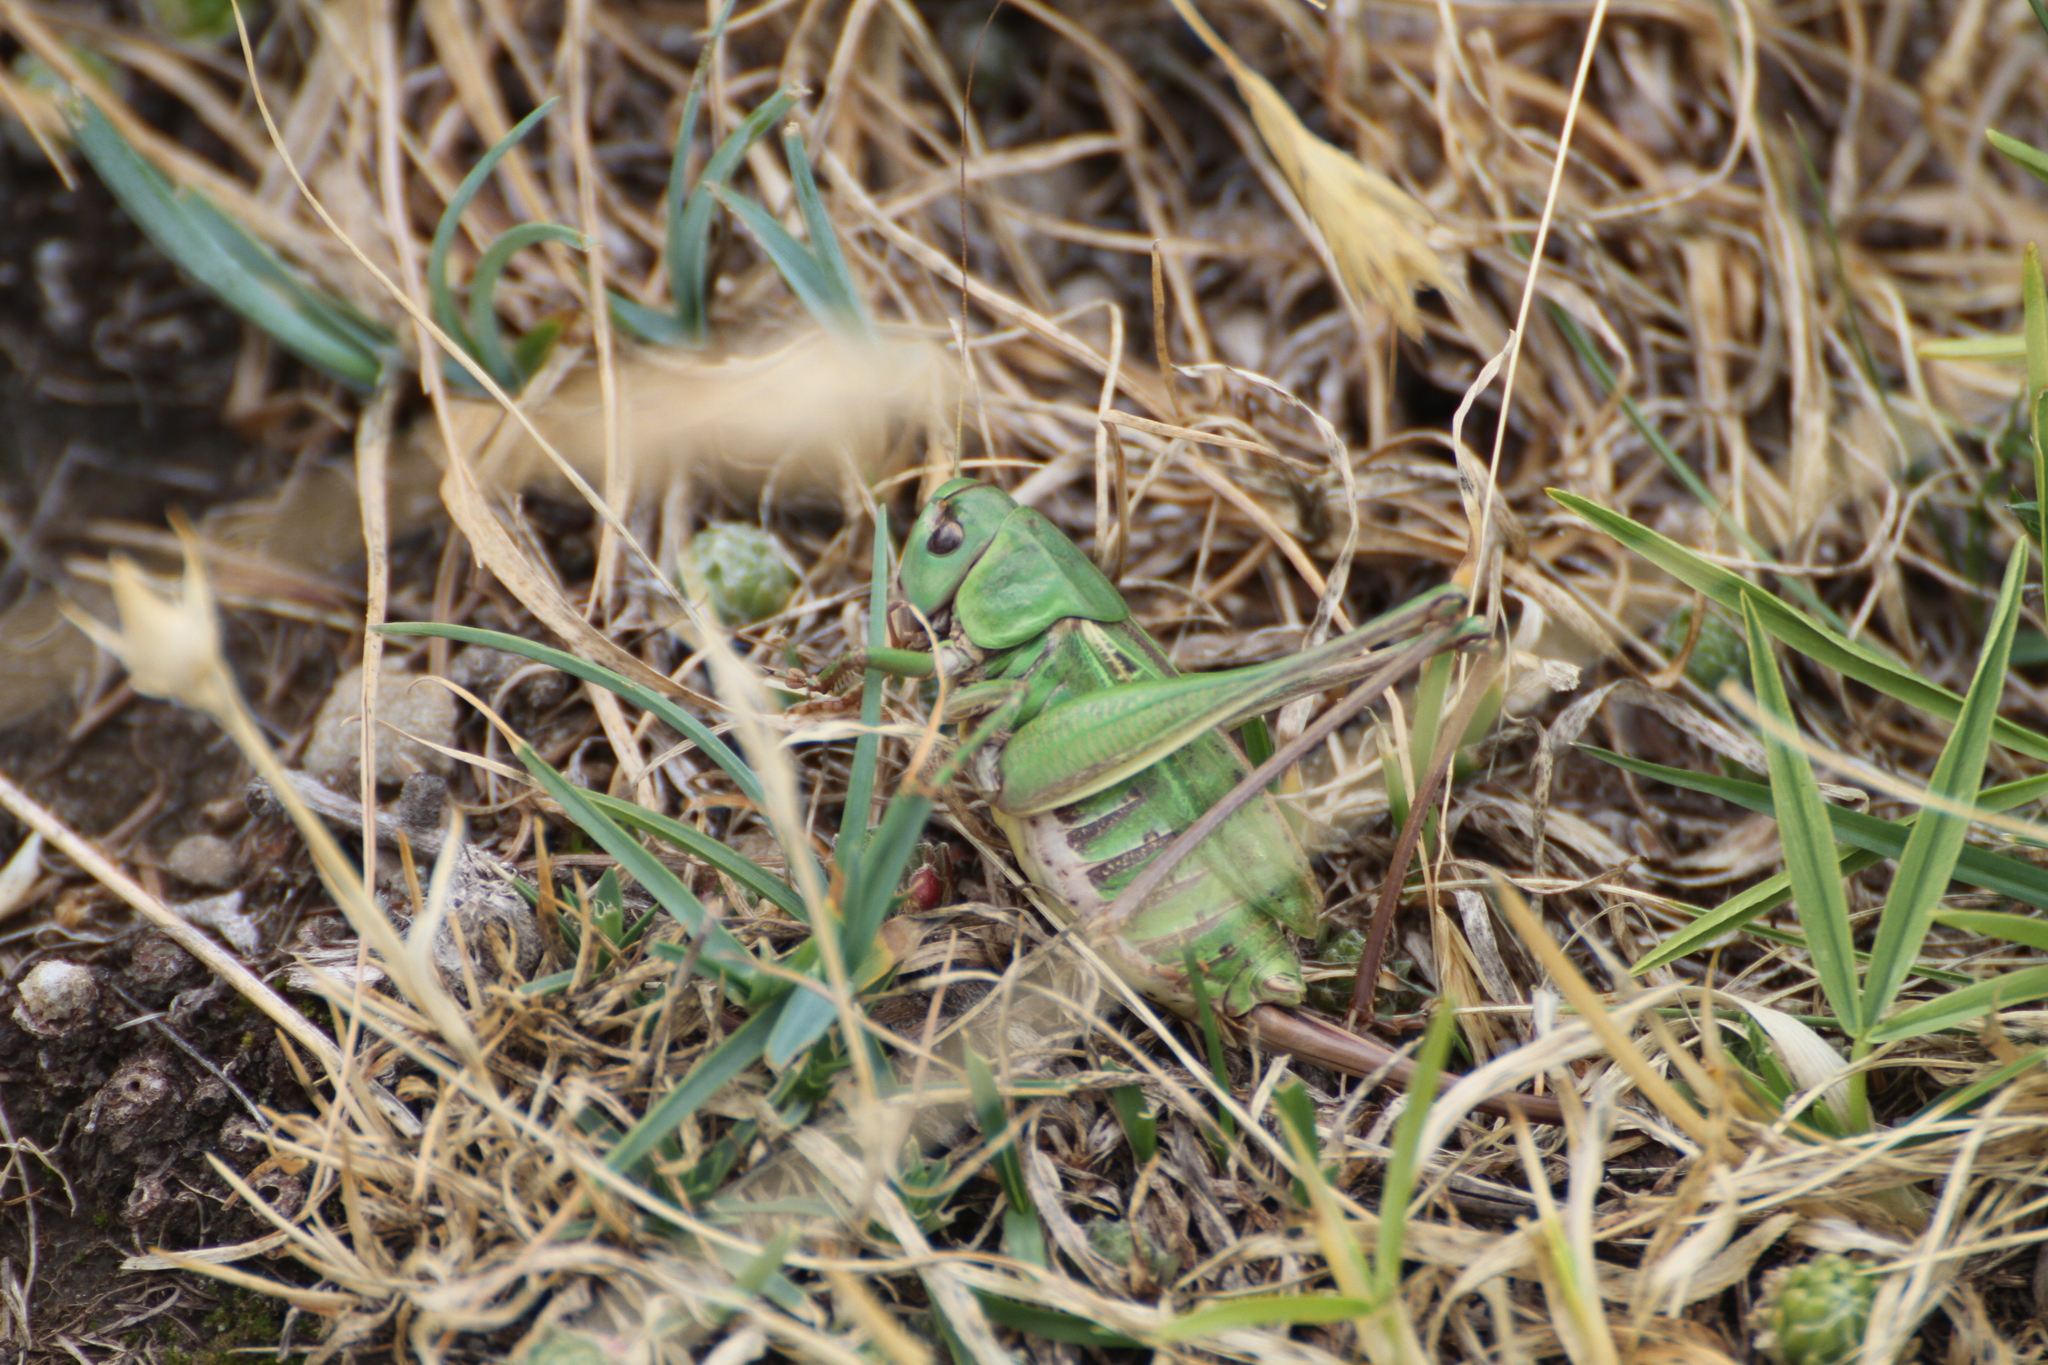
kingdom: Animalia
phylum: Arthropoda
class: Insecta
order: Orthoptera
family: Tettigoniidae
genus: Decticus
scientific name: Decticus verrucivorus
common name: Wart-biter
